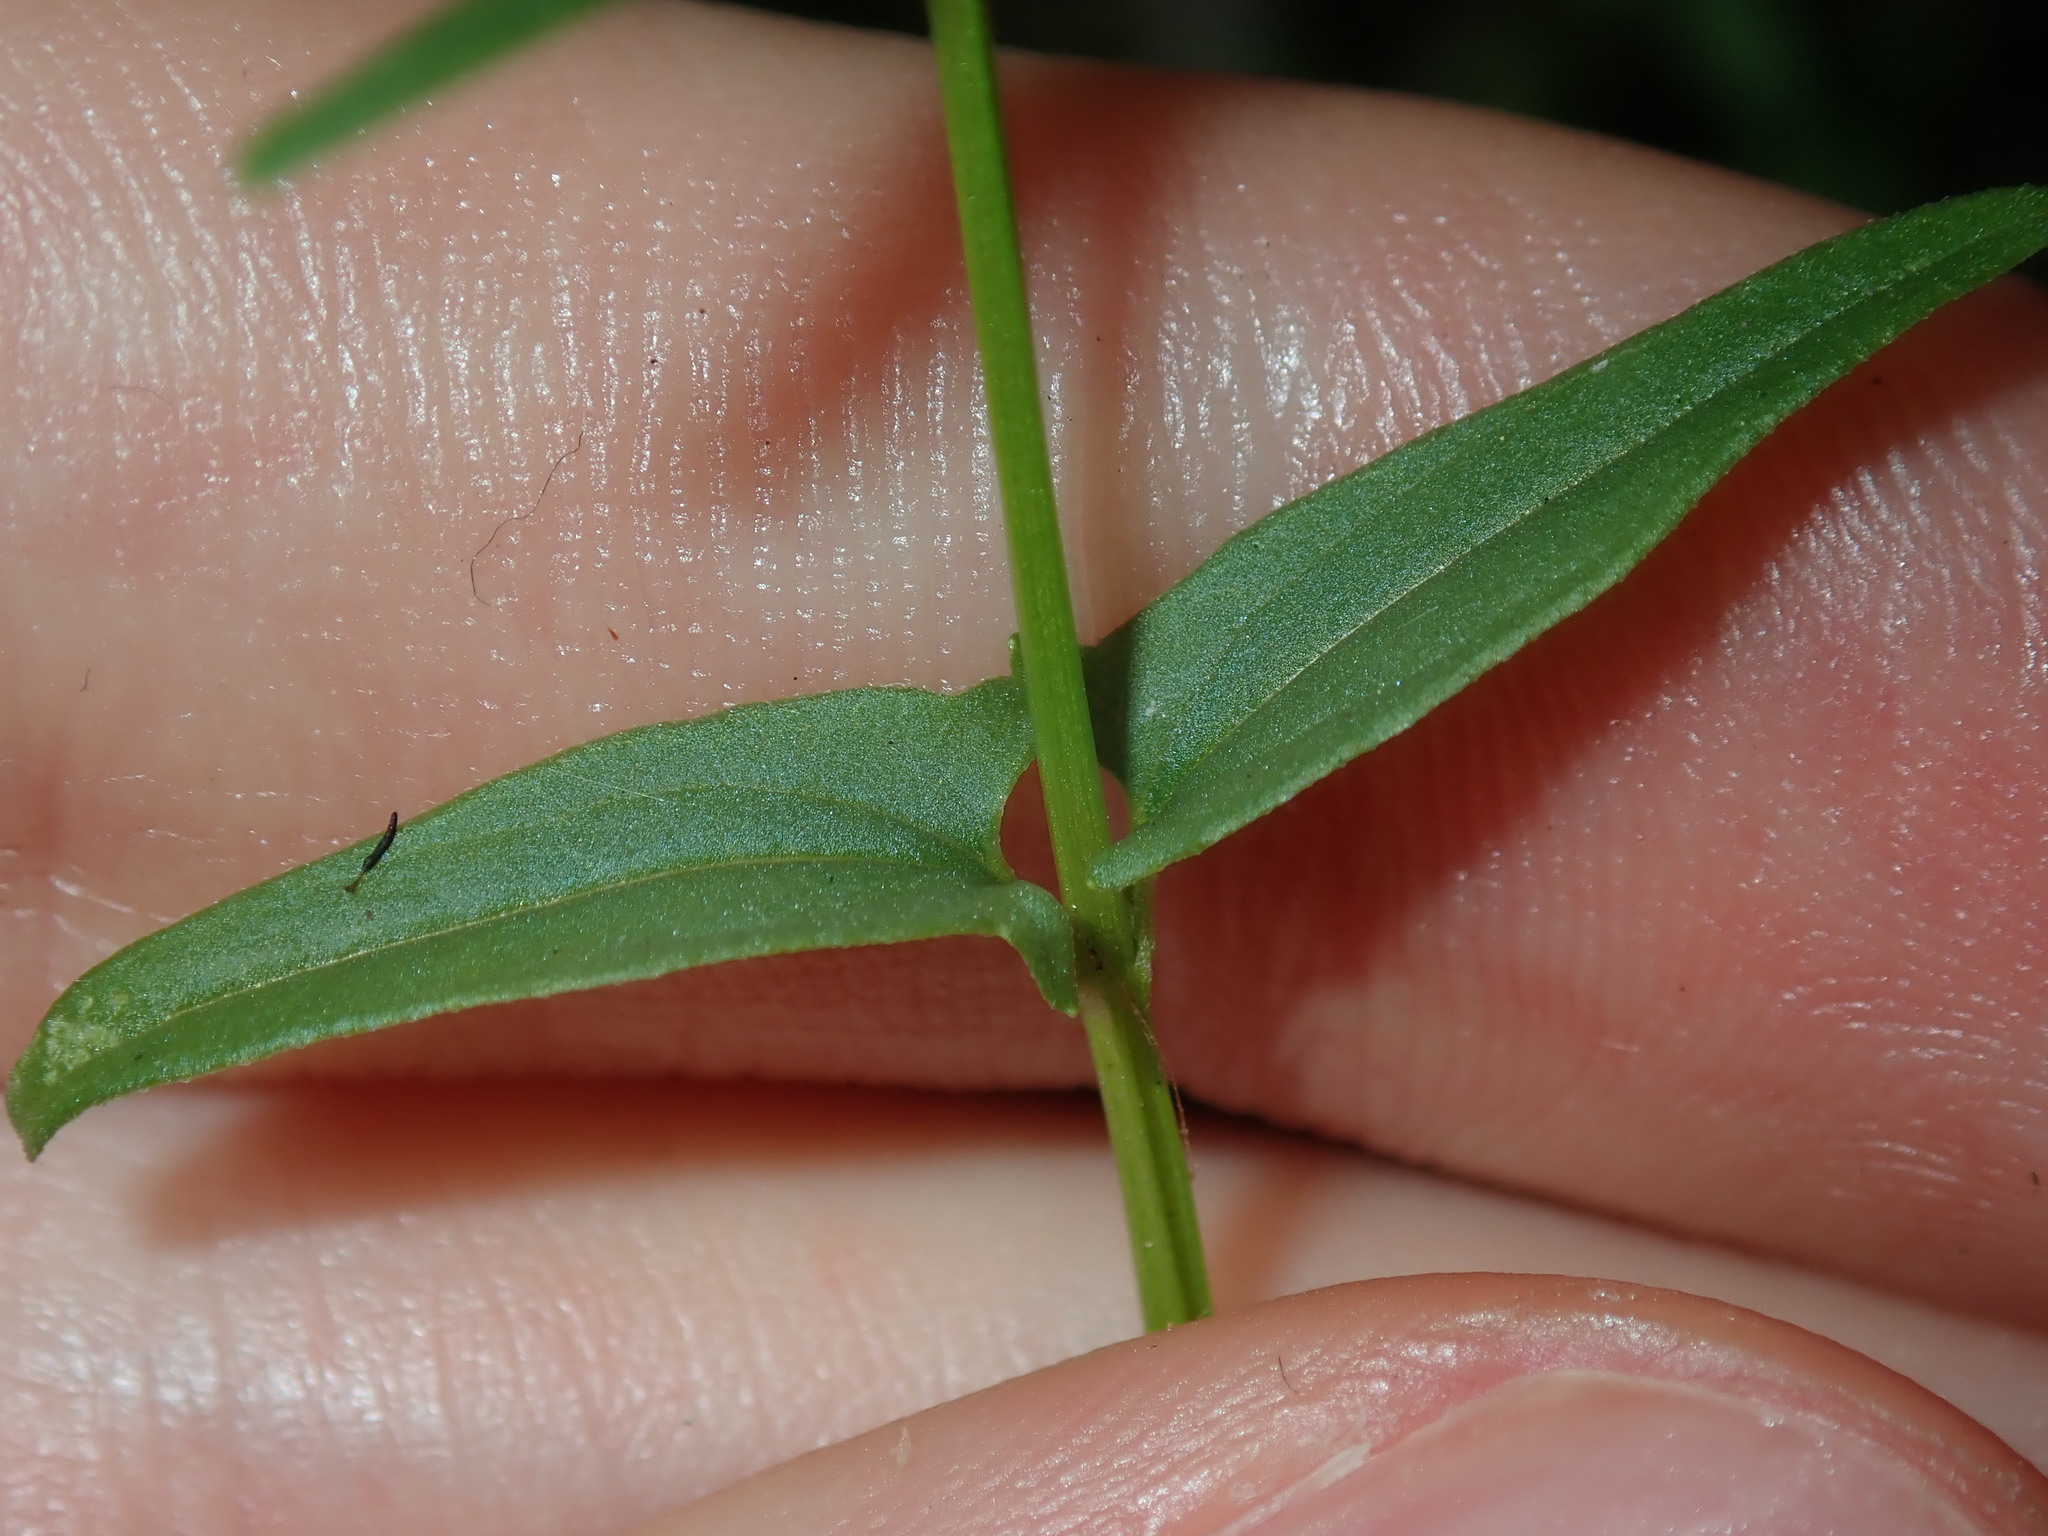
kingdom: Plantae
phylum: Tracheophyta
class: Magnoliopsida
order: Lamiales
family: Lamiaceae
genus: Scutellaria
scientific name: Scutellaria racemosa
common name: South american skullcap
